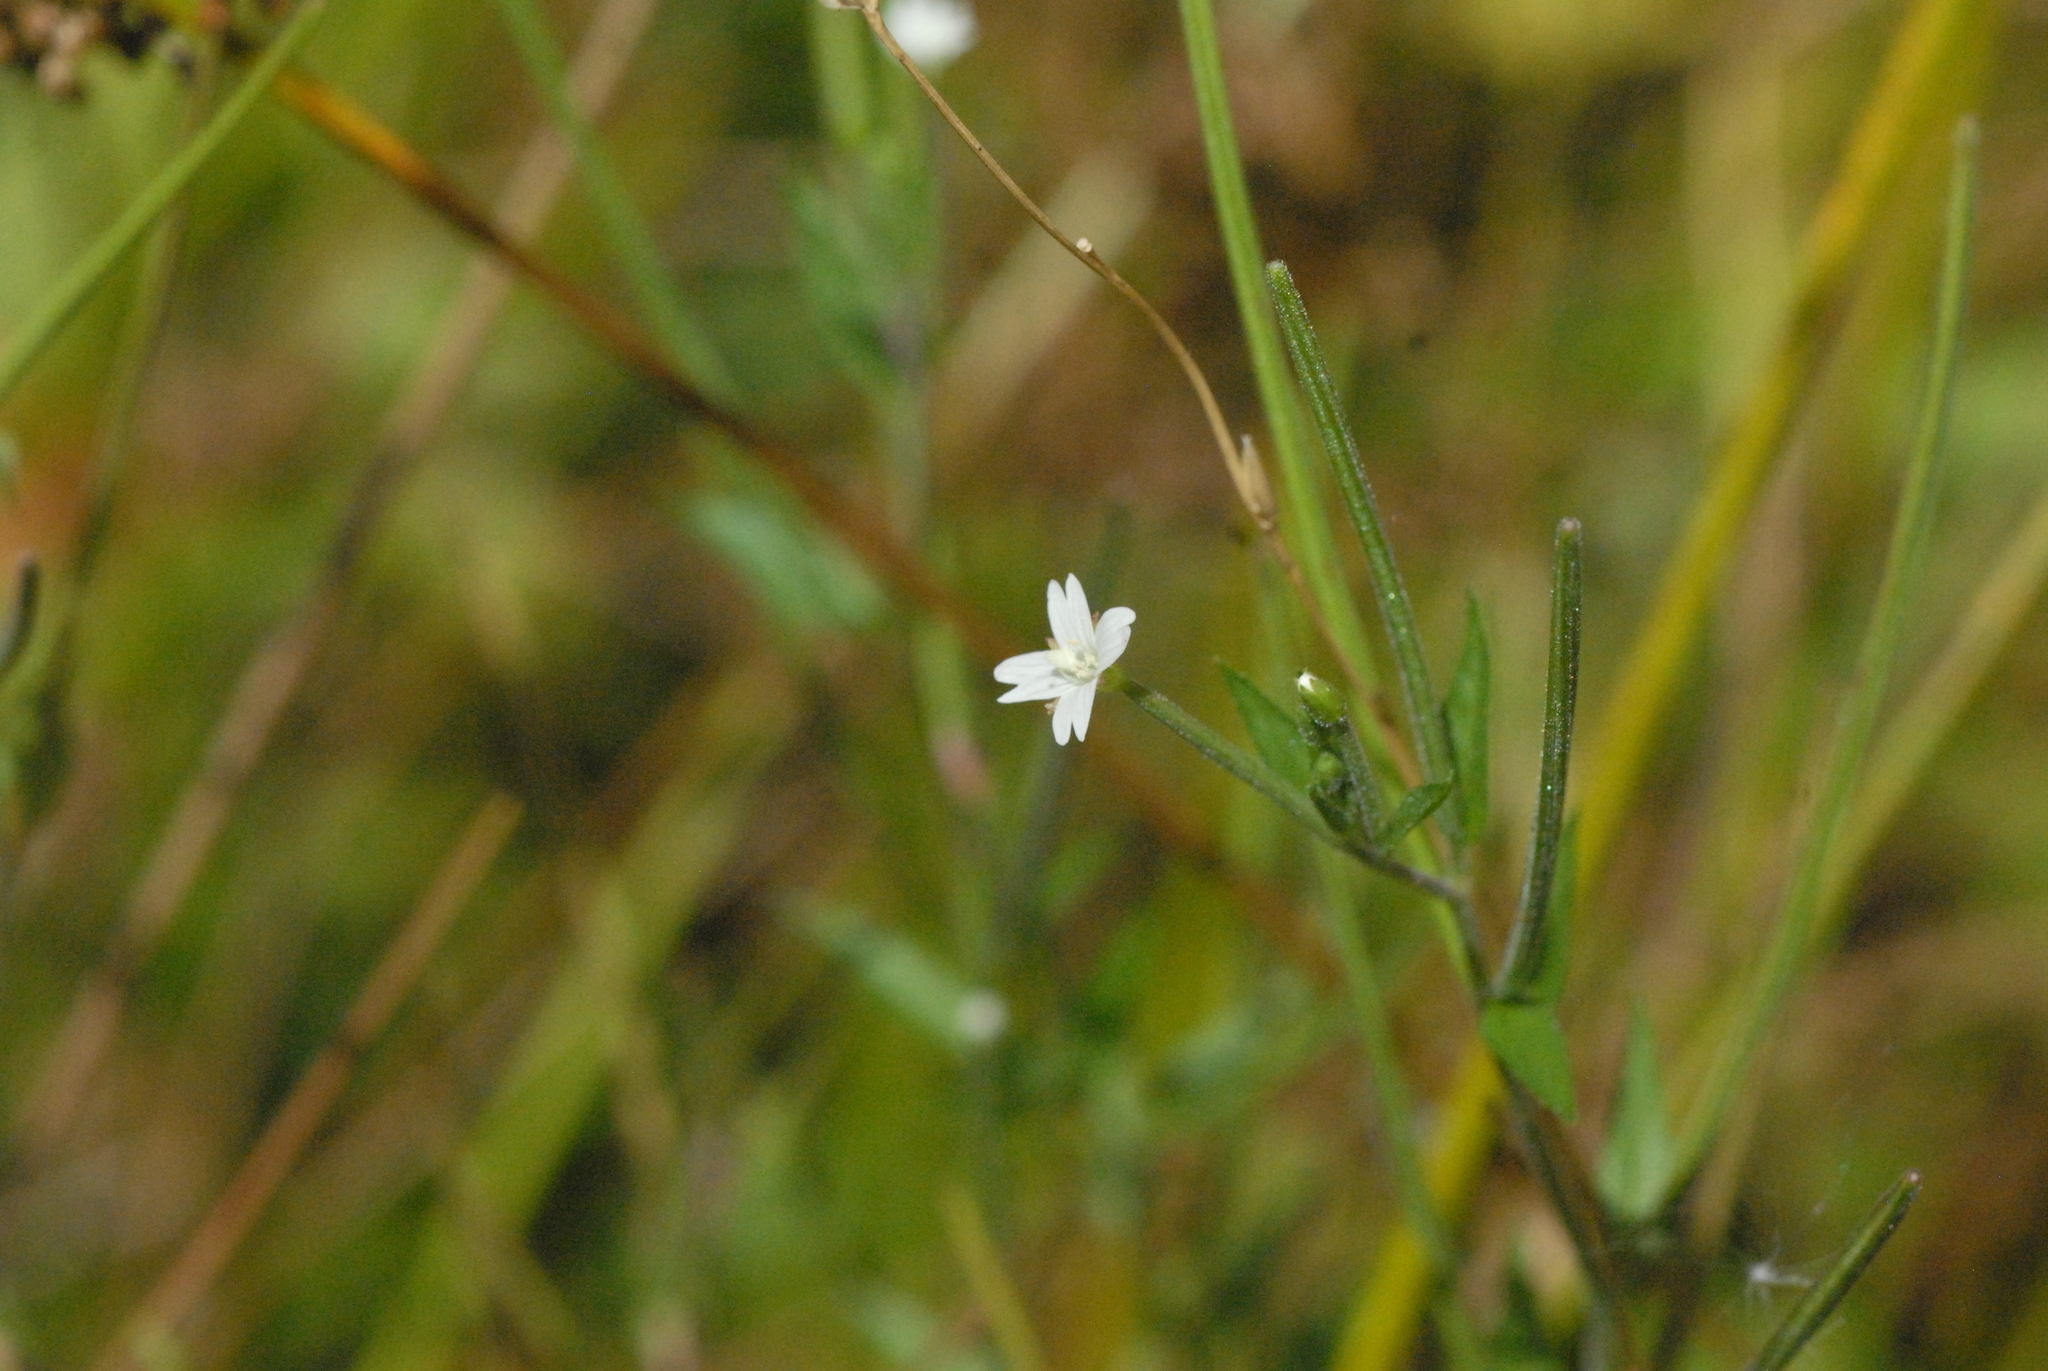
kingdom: Plantae
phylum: Tracheophyta
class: Magnoliopsida
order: Myrtales
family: Onagraceae
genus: Epilobium
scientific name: Epilobium pseudorubescens
